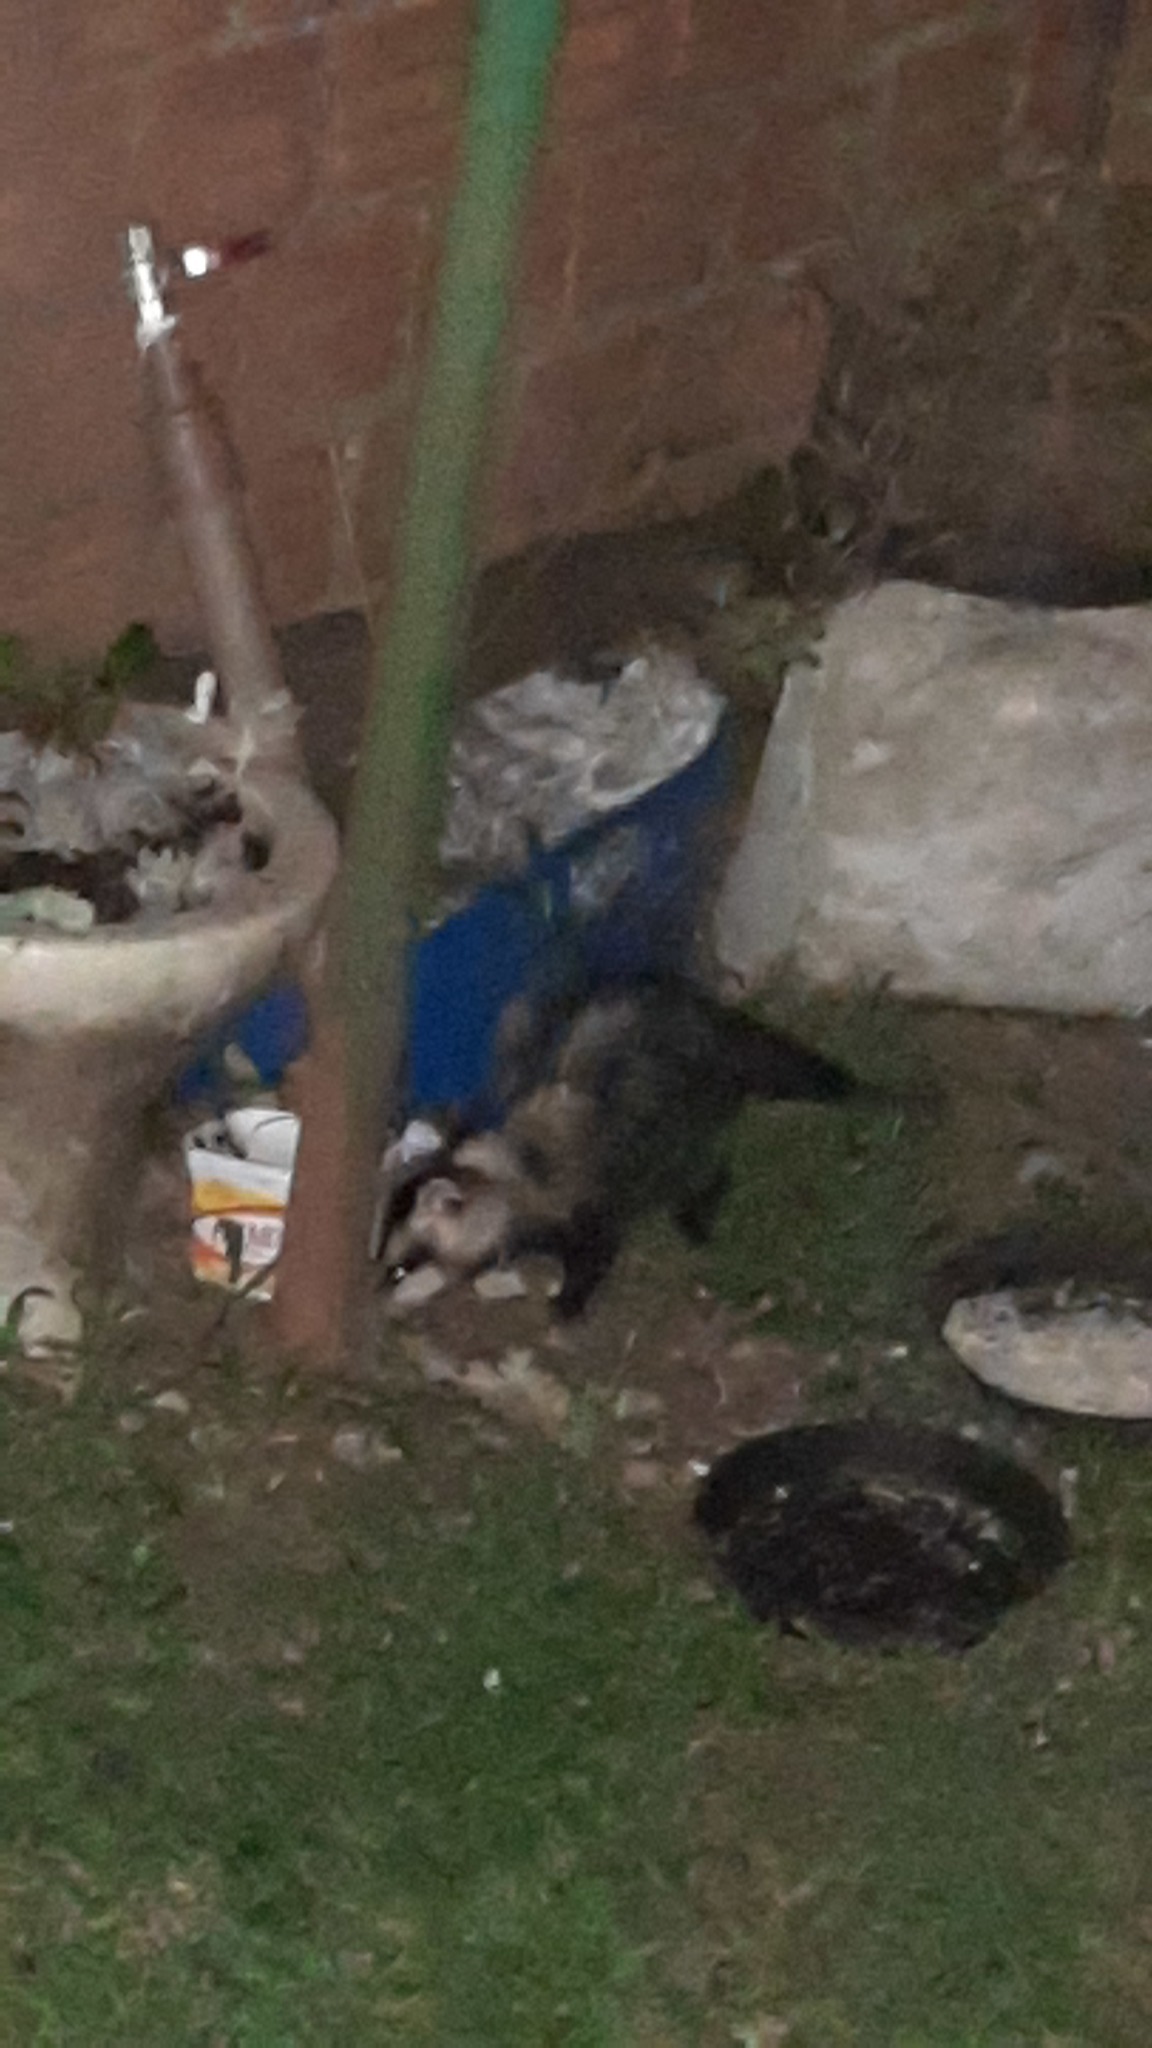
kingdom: Animalia
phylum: Chordata
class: Mammalia
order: Didelphimorphia
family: Didelphidae
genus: Didelphis
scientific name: Didelphis albiventris
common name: White-eared opossum
